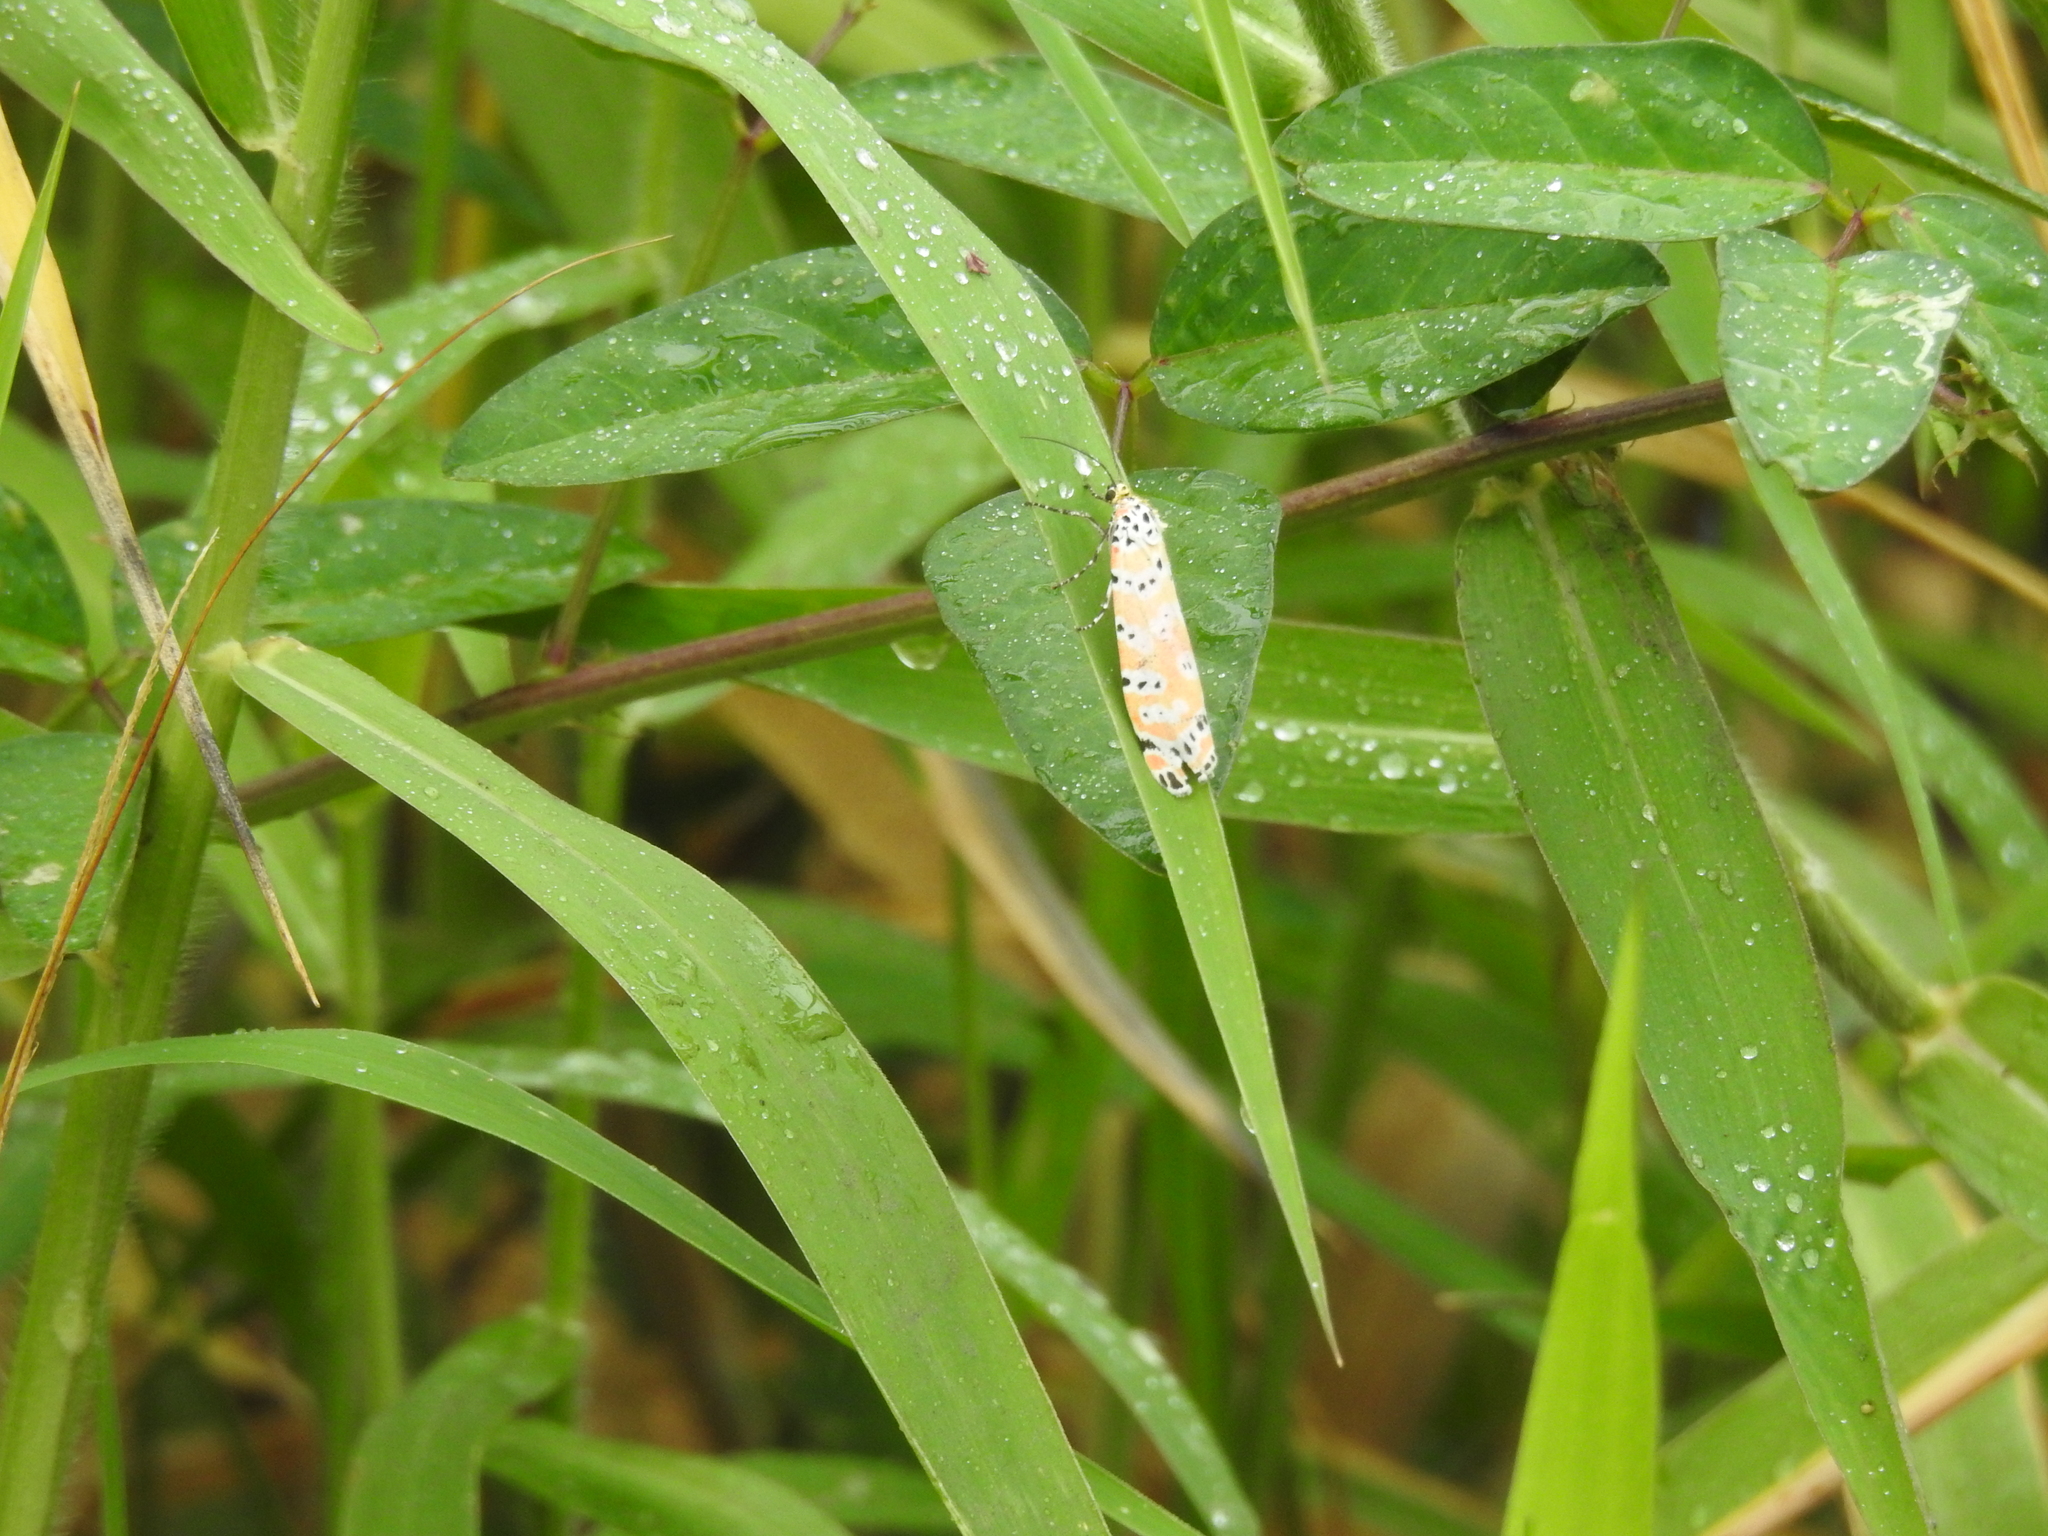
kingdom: Animalia
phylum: Arthropoda
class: Insecta
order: Lepidoptera
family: Erebidae
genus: Utetheisa
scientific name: Utetheisa ornatrix
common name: Beautiful utetheisa
